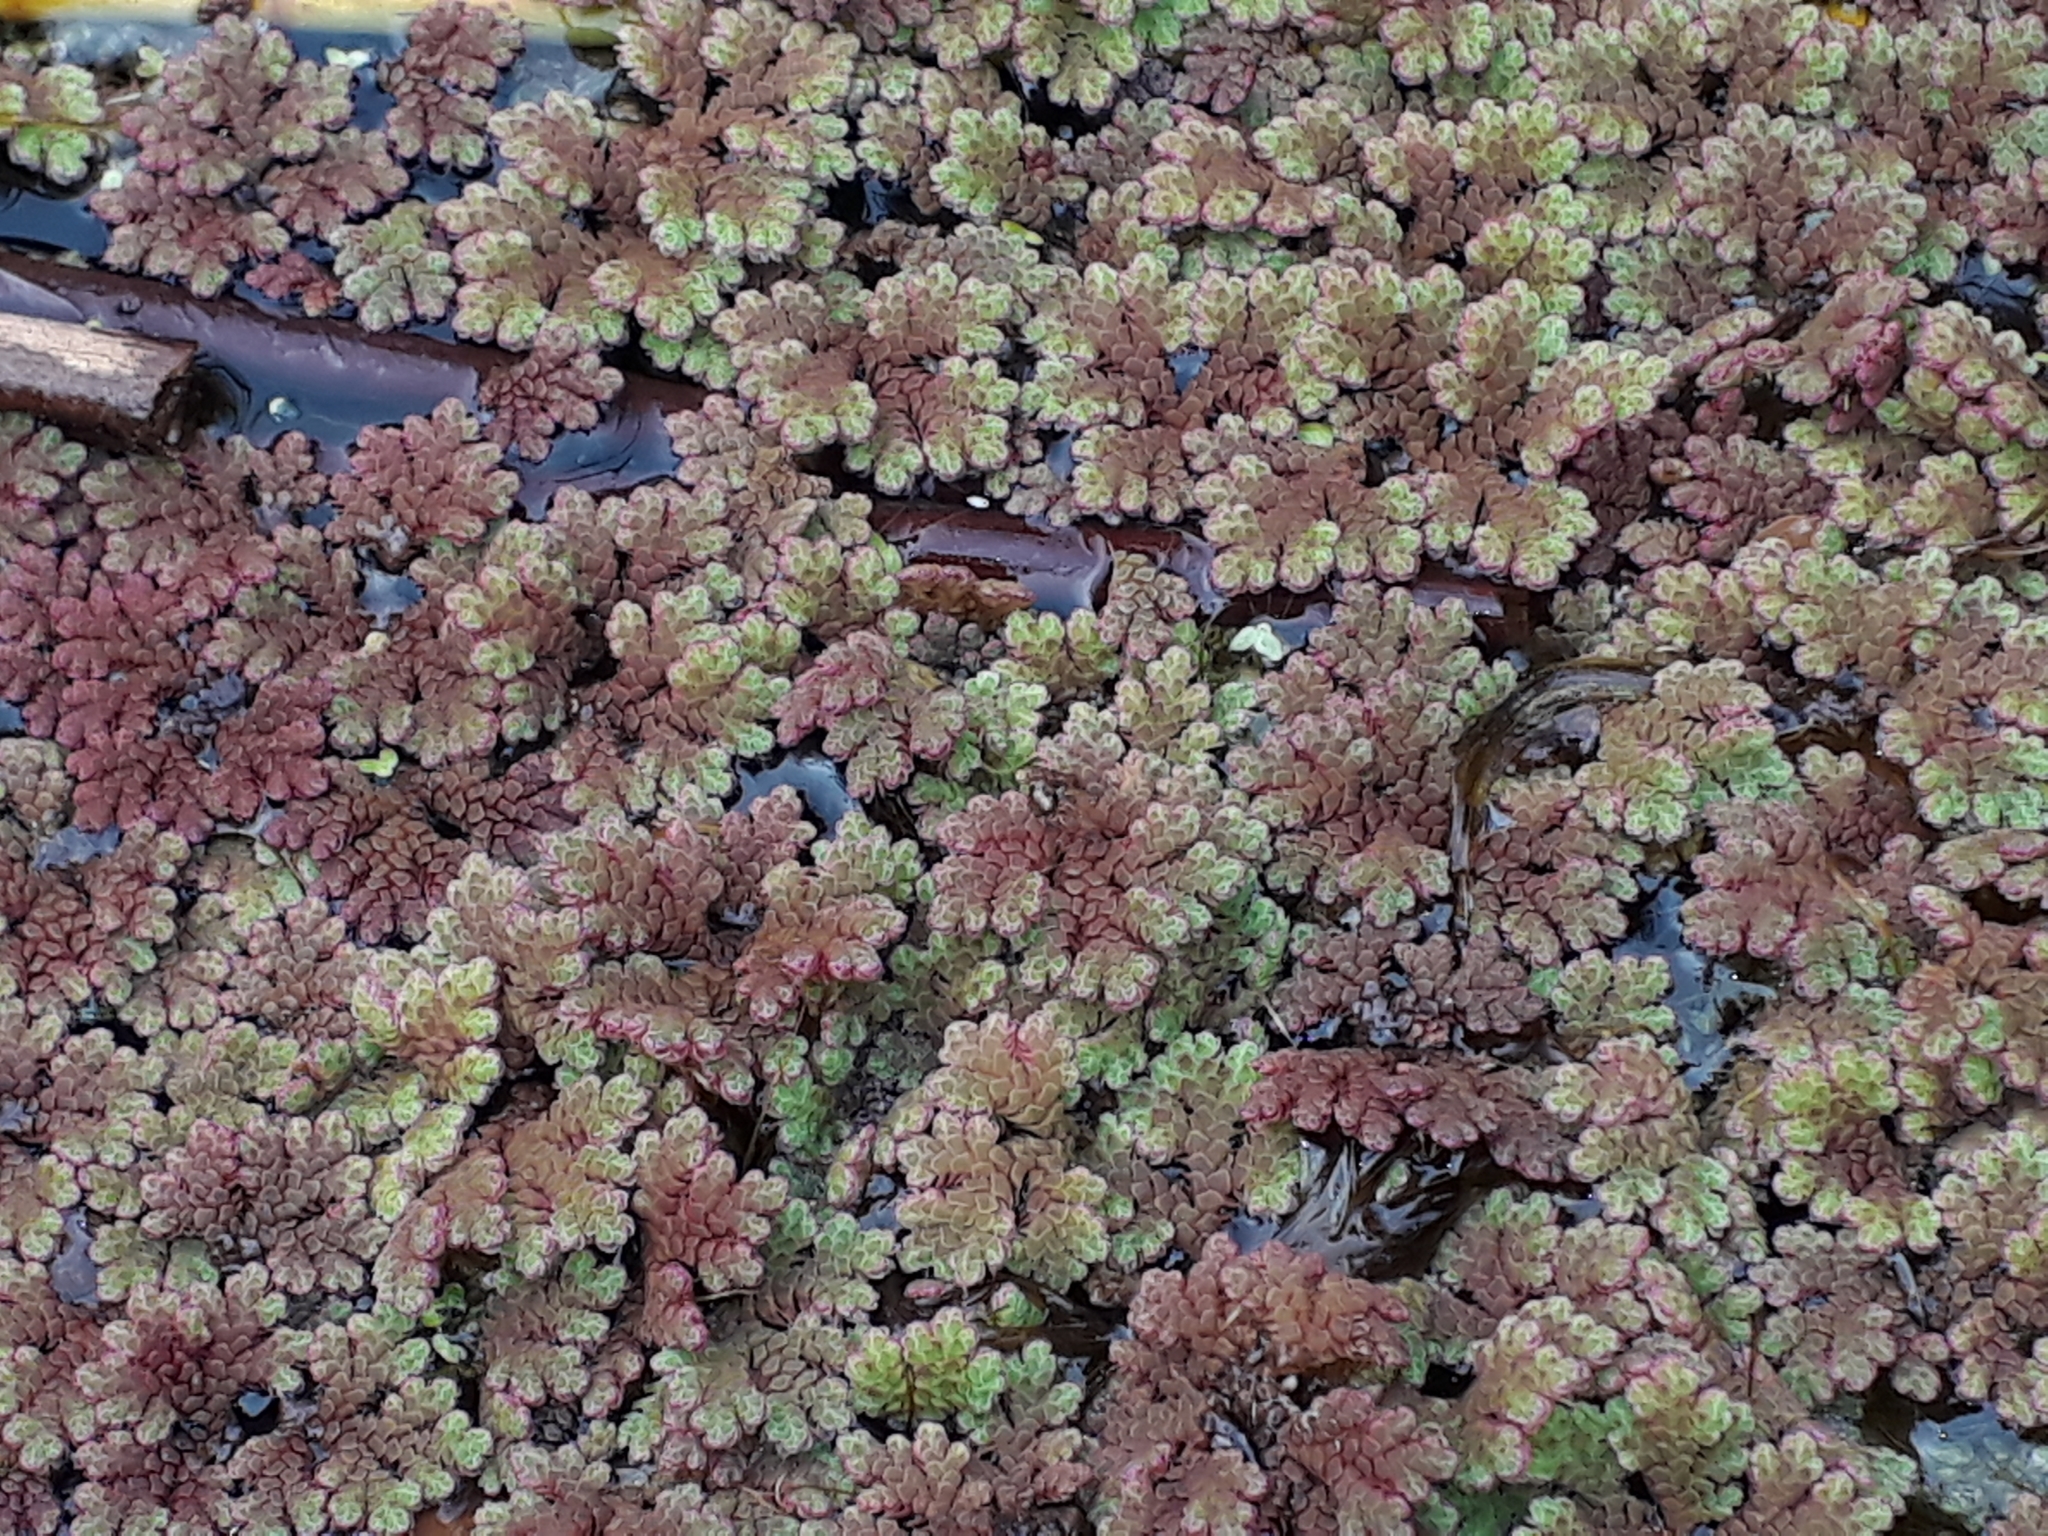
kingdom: Plantae
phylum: Tracheophyta
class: Polypodiopsida
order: Salviniales
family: Salviniaceae
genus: Azolla
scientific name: Azolla rubra
